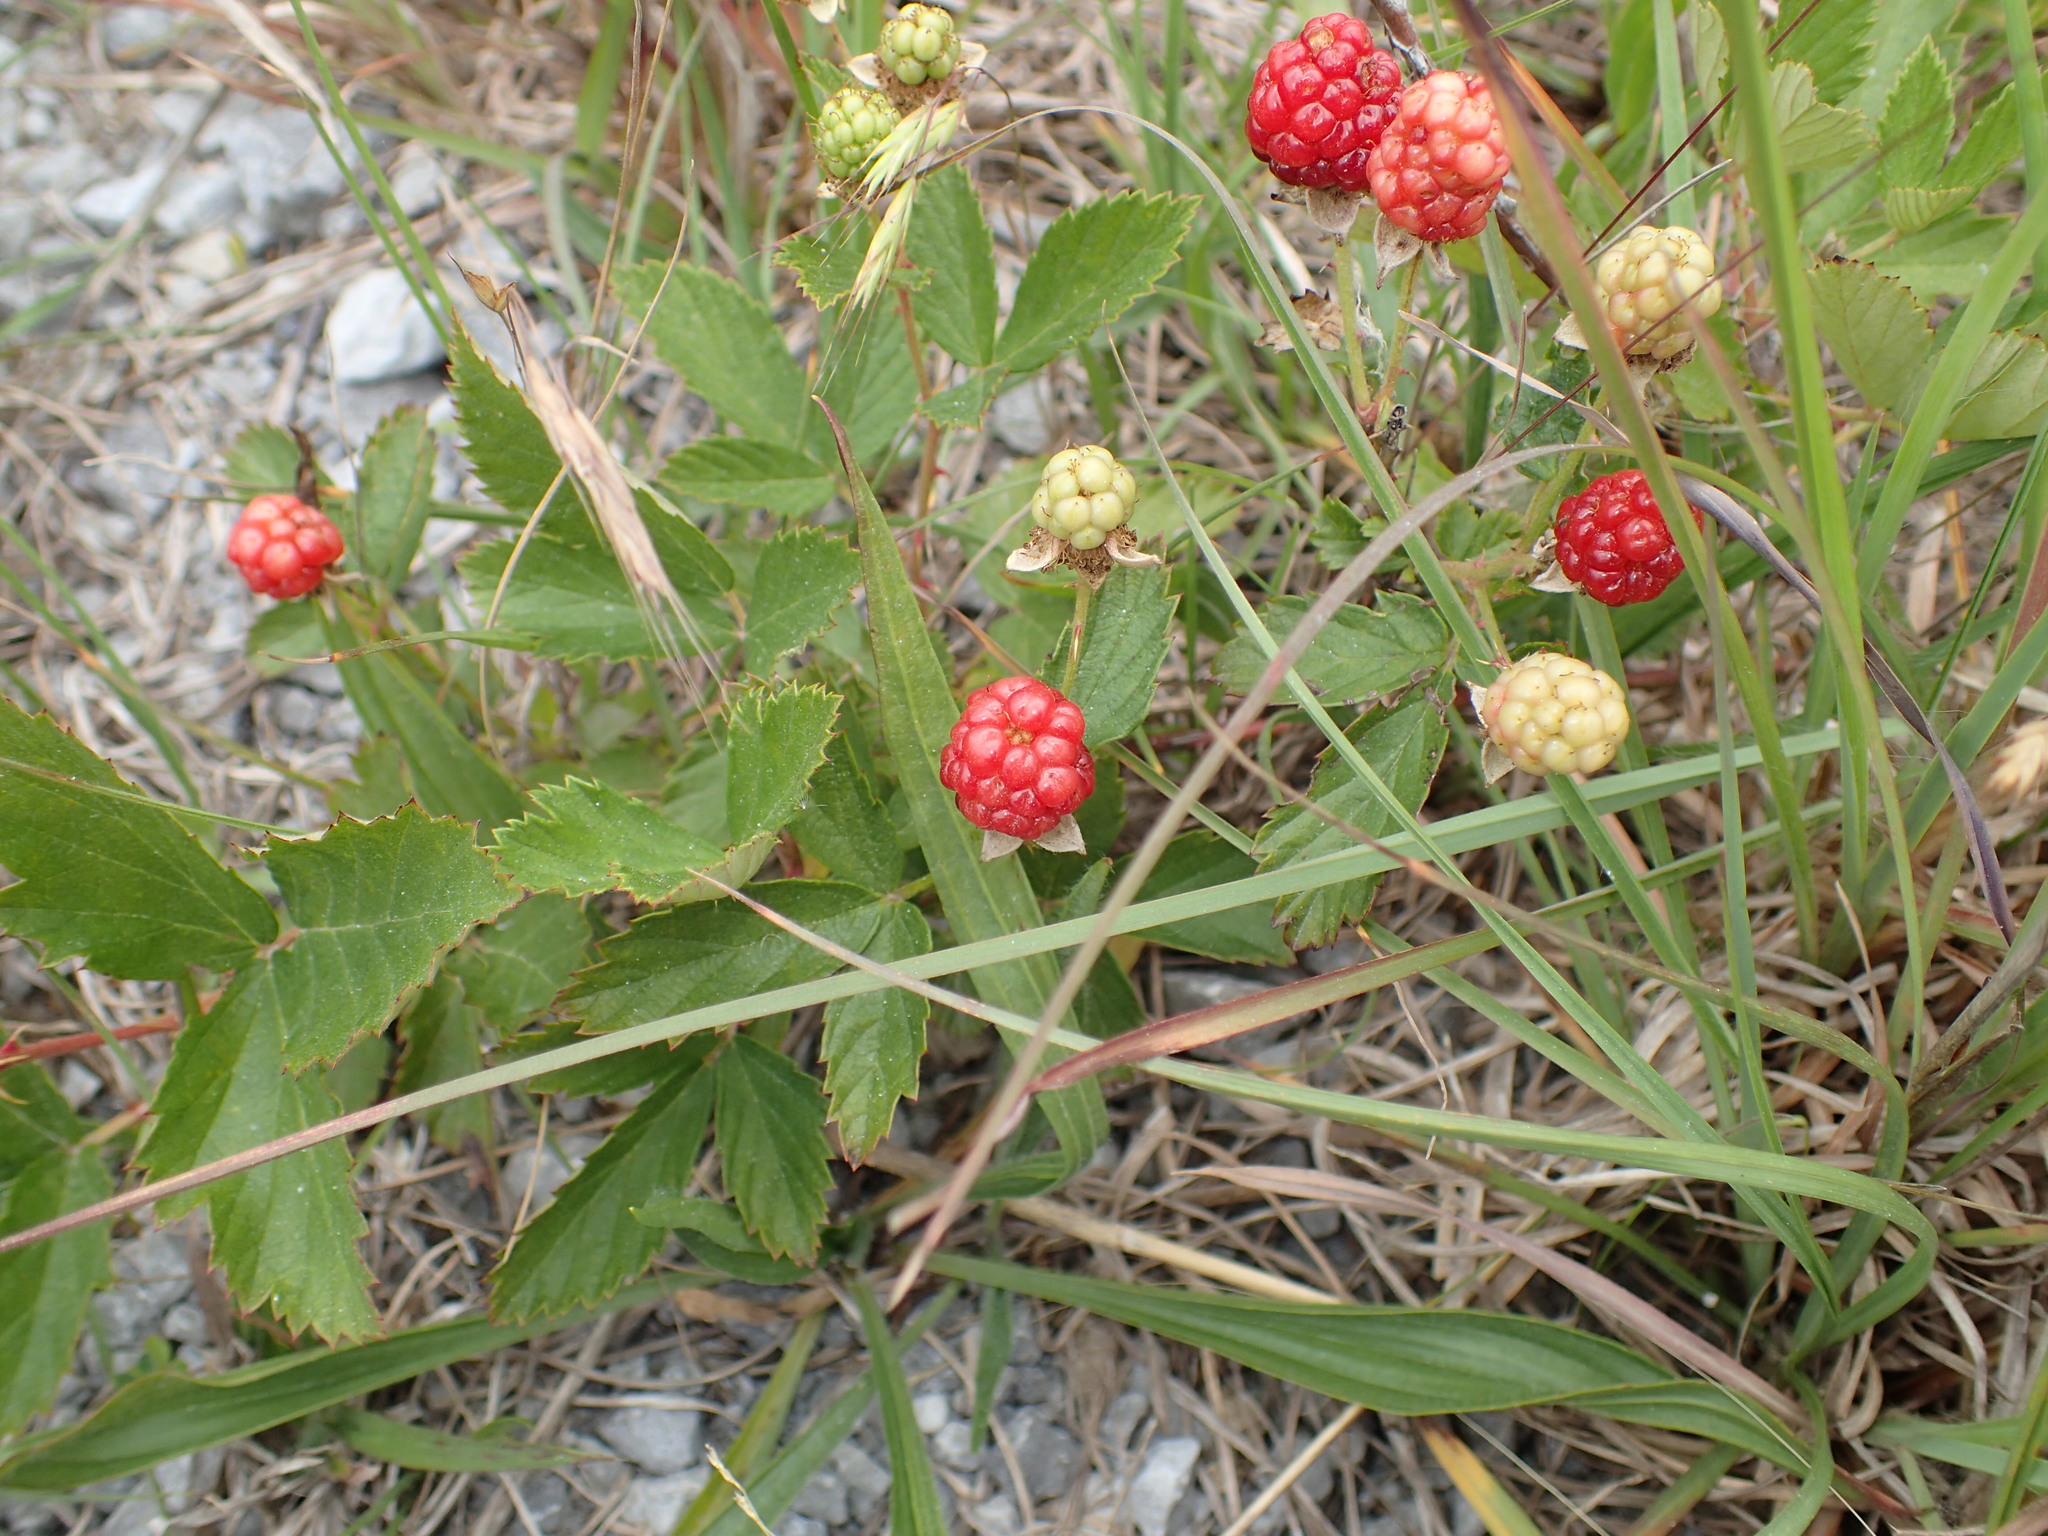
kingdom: Plantae
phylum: Tracheophyta
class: Magnoliopsida
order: Rosales
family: Rosaceae
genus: Rubus
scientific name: Rubus trivialis
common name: Southern dewberry
